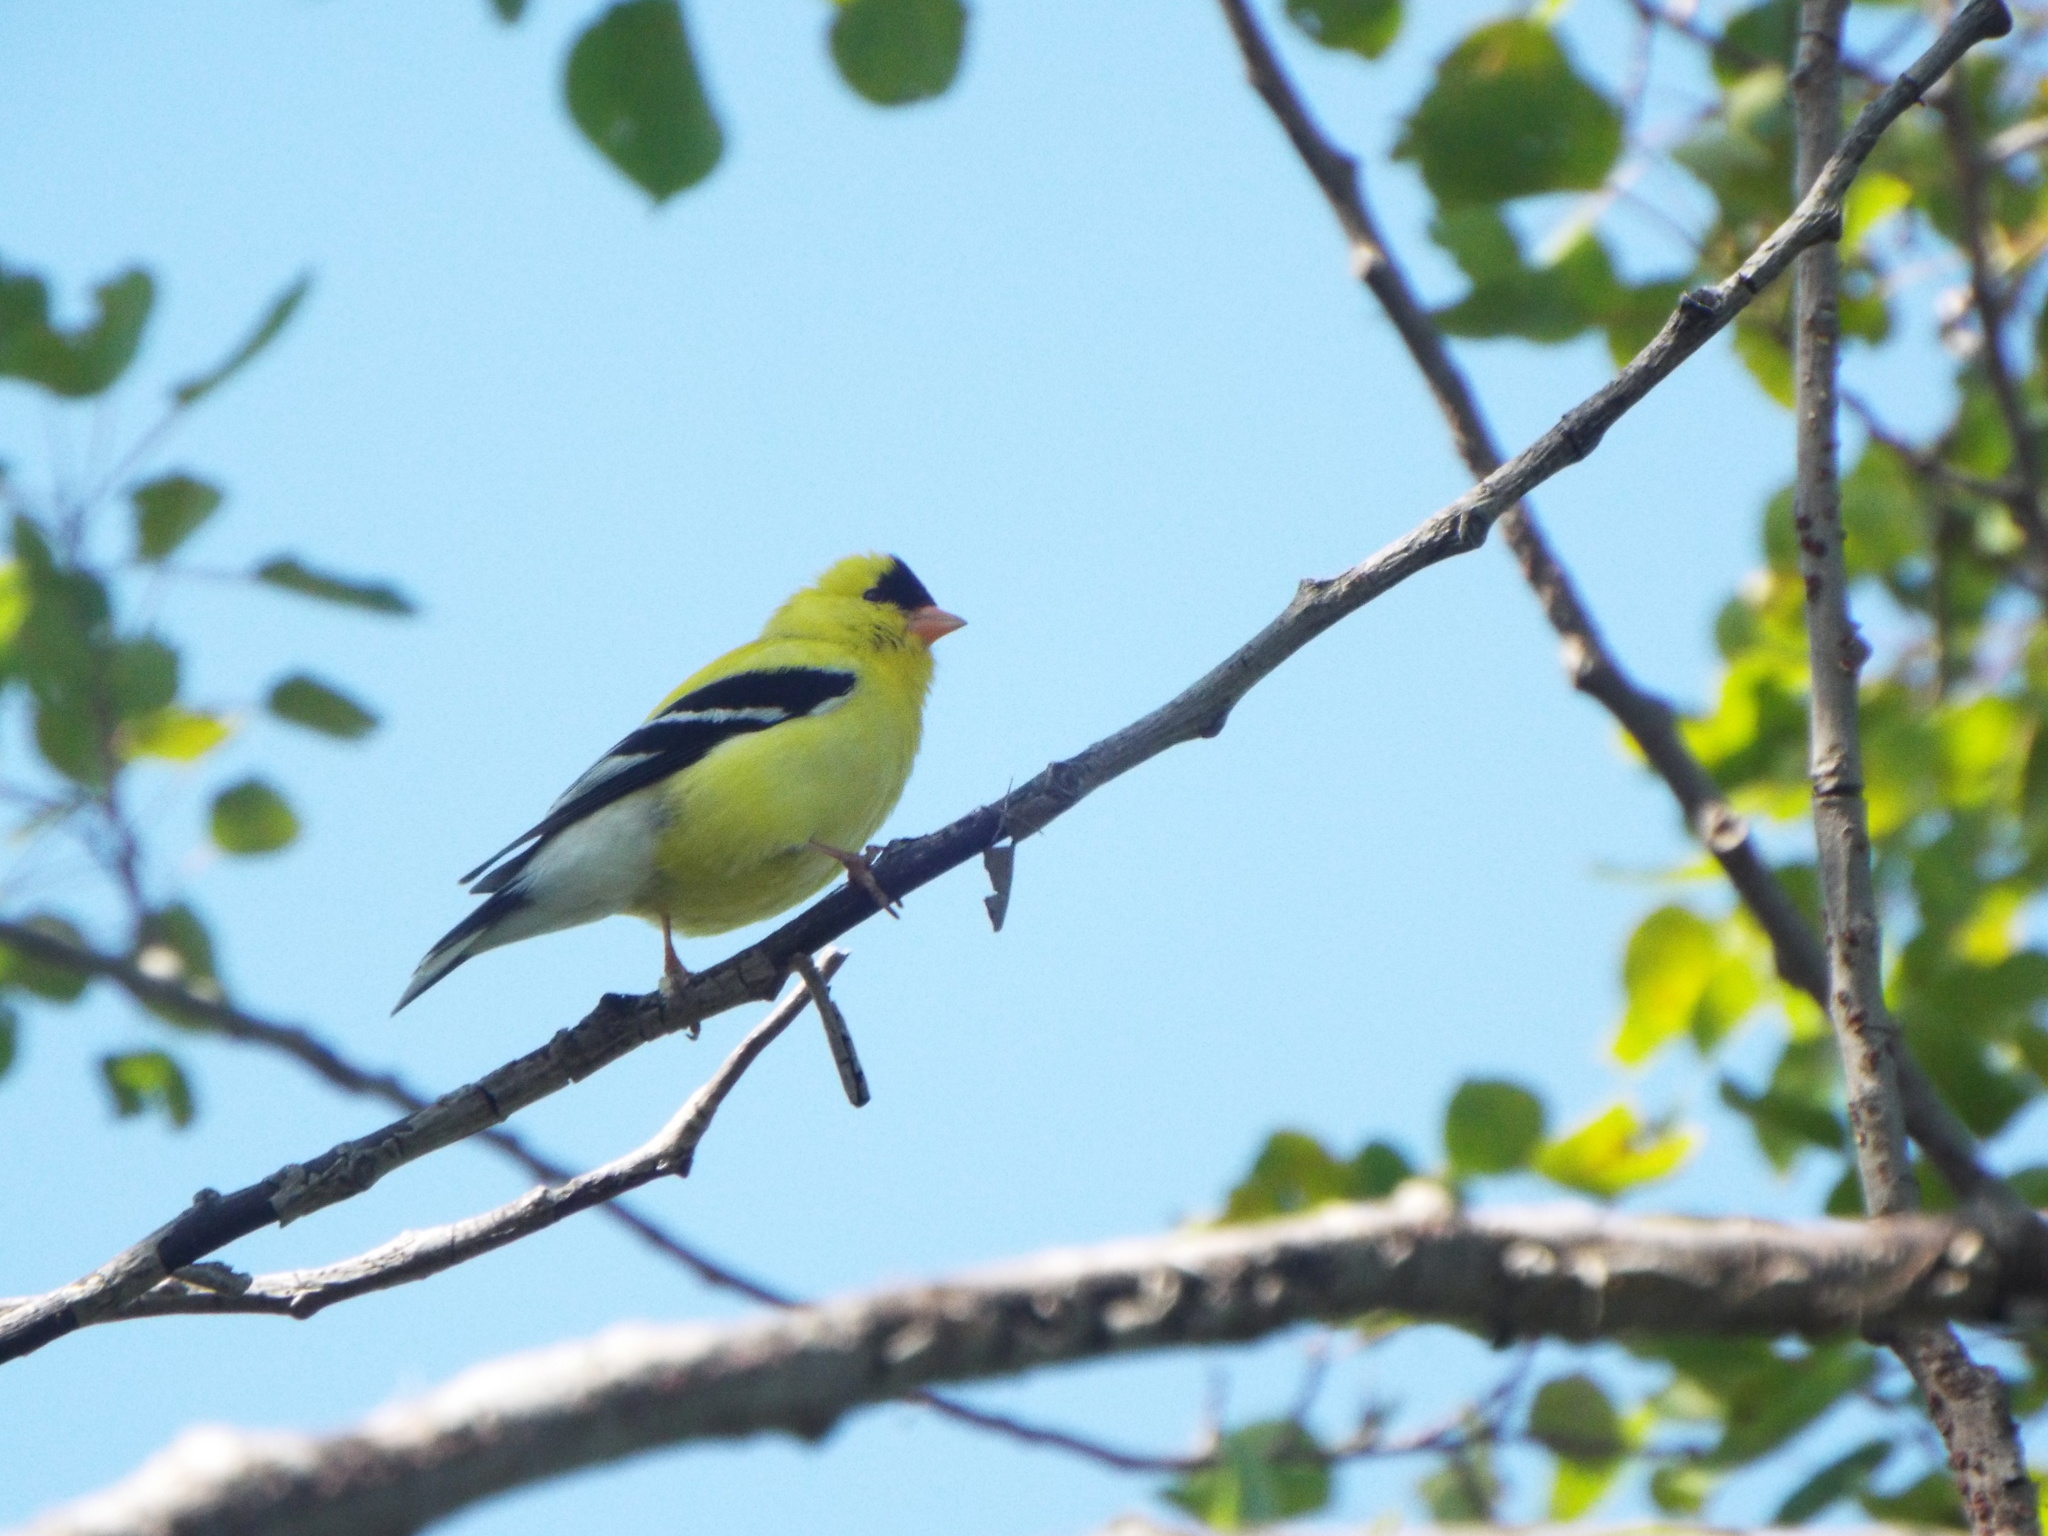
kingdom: Animalia
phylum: Chordata
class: Aves
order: Passeriformes
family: Fringillidae
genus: Spinus
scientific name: Spinus tristis
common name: American goldfinch
